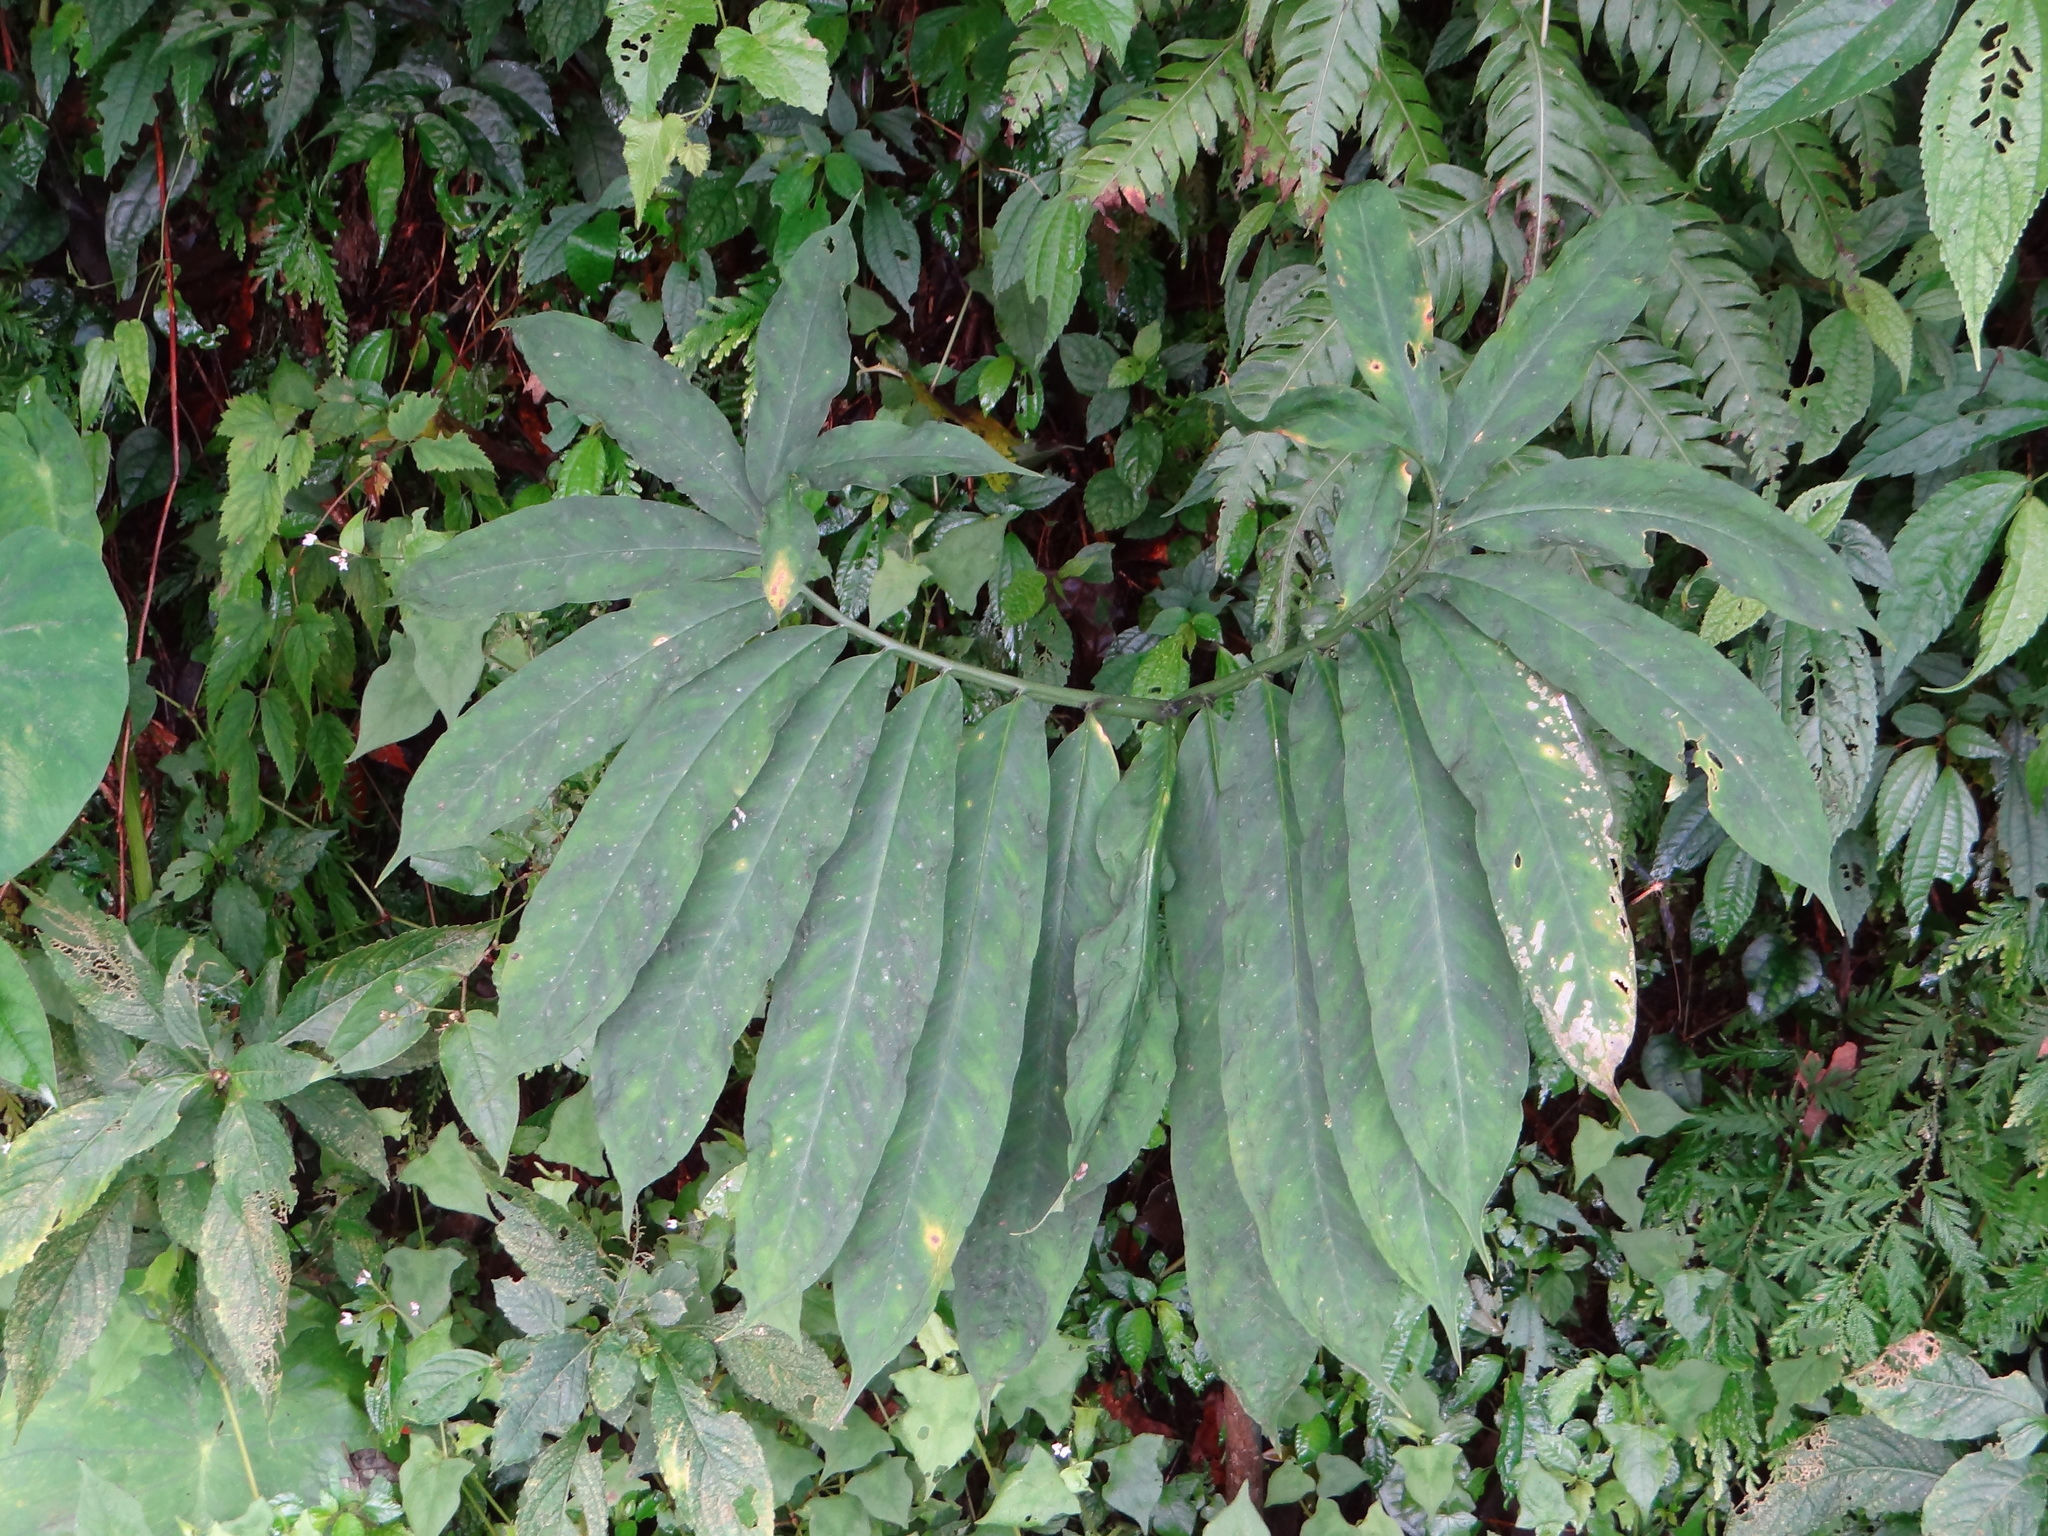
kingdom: Plantae
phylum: Tracheophyta
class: Liliopsida
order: Alismatales
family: Araceae
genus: Arisaema
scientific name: Arisaema heterophyllum
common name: Dancing crane cobra lily
